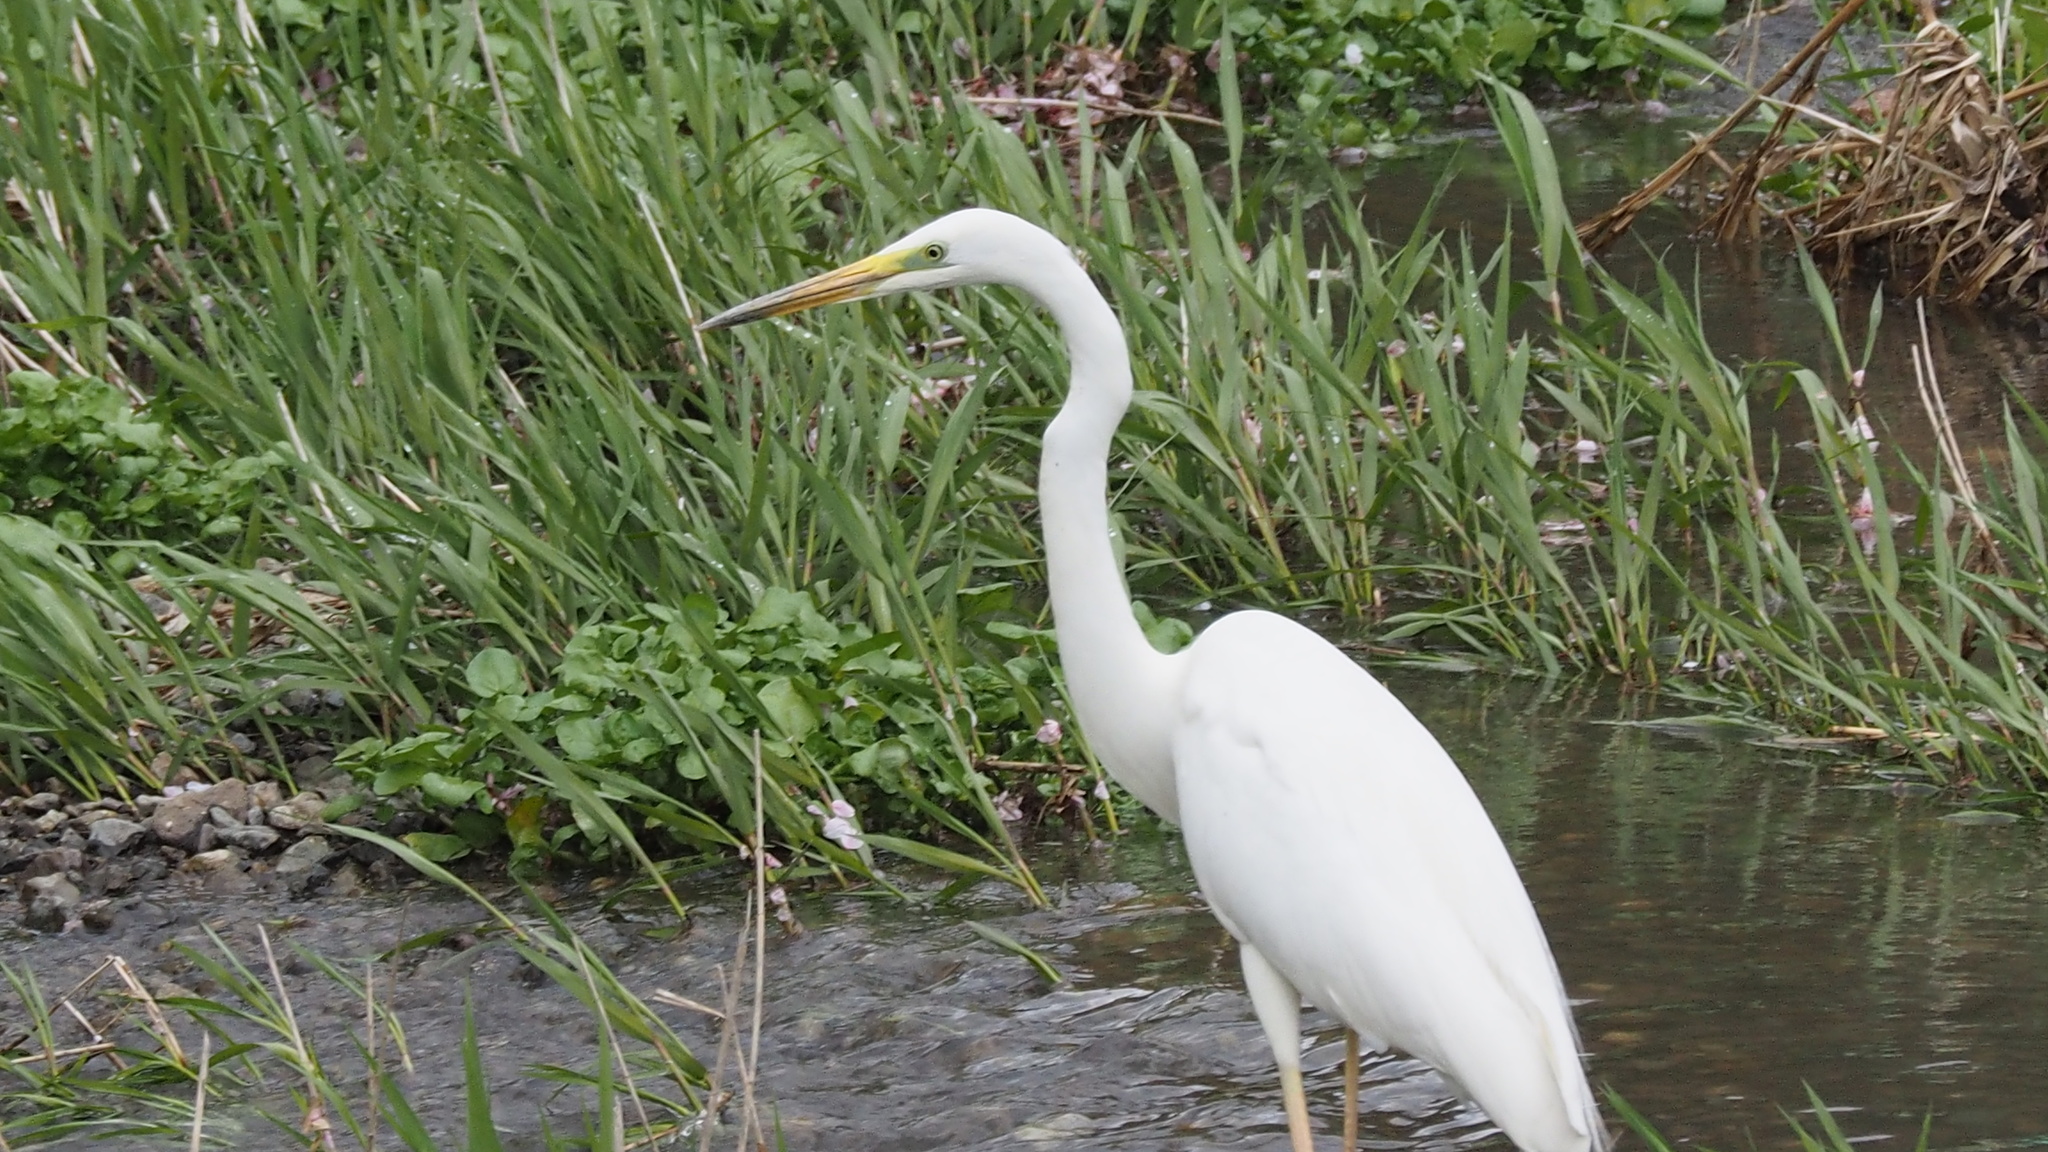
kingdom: Animalia
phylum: Chordata
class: Aves
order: Pelecaniformes
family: Ardeidae
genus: Ardea
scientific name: Ardea alba
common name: Great egret
